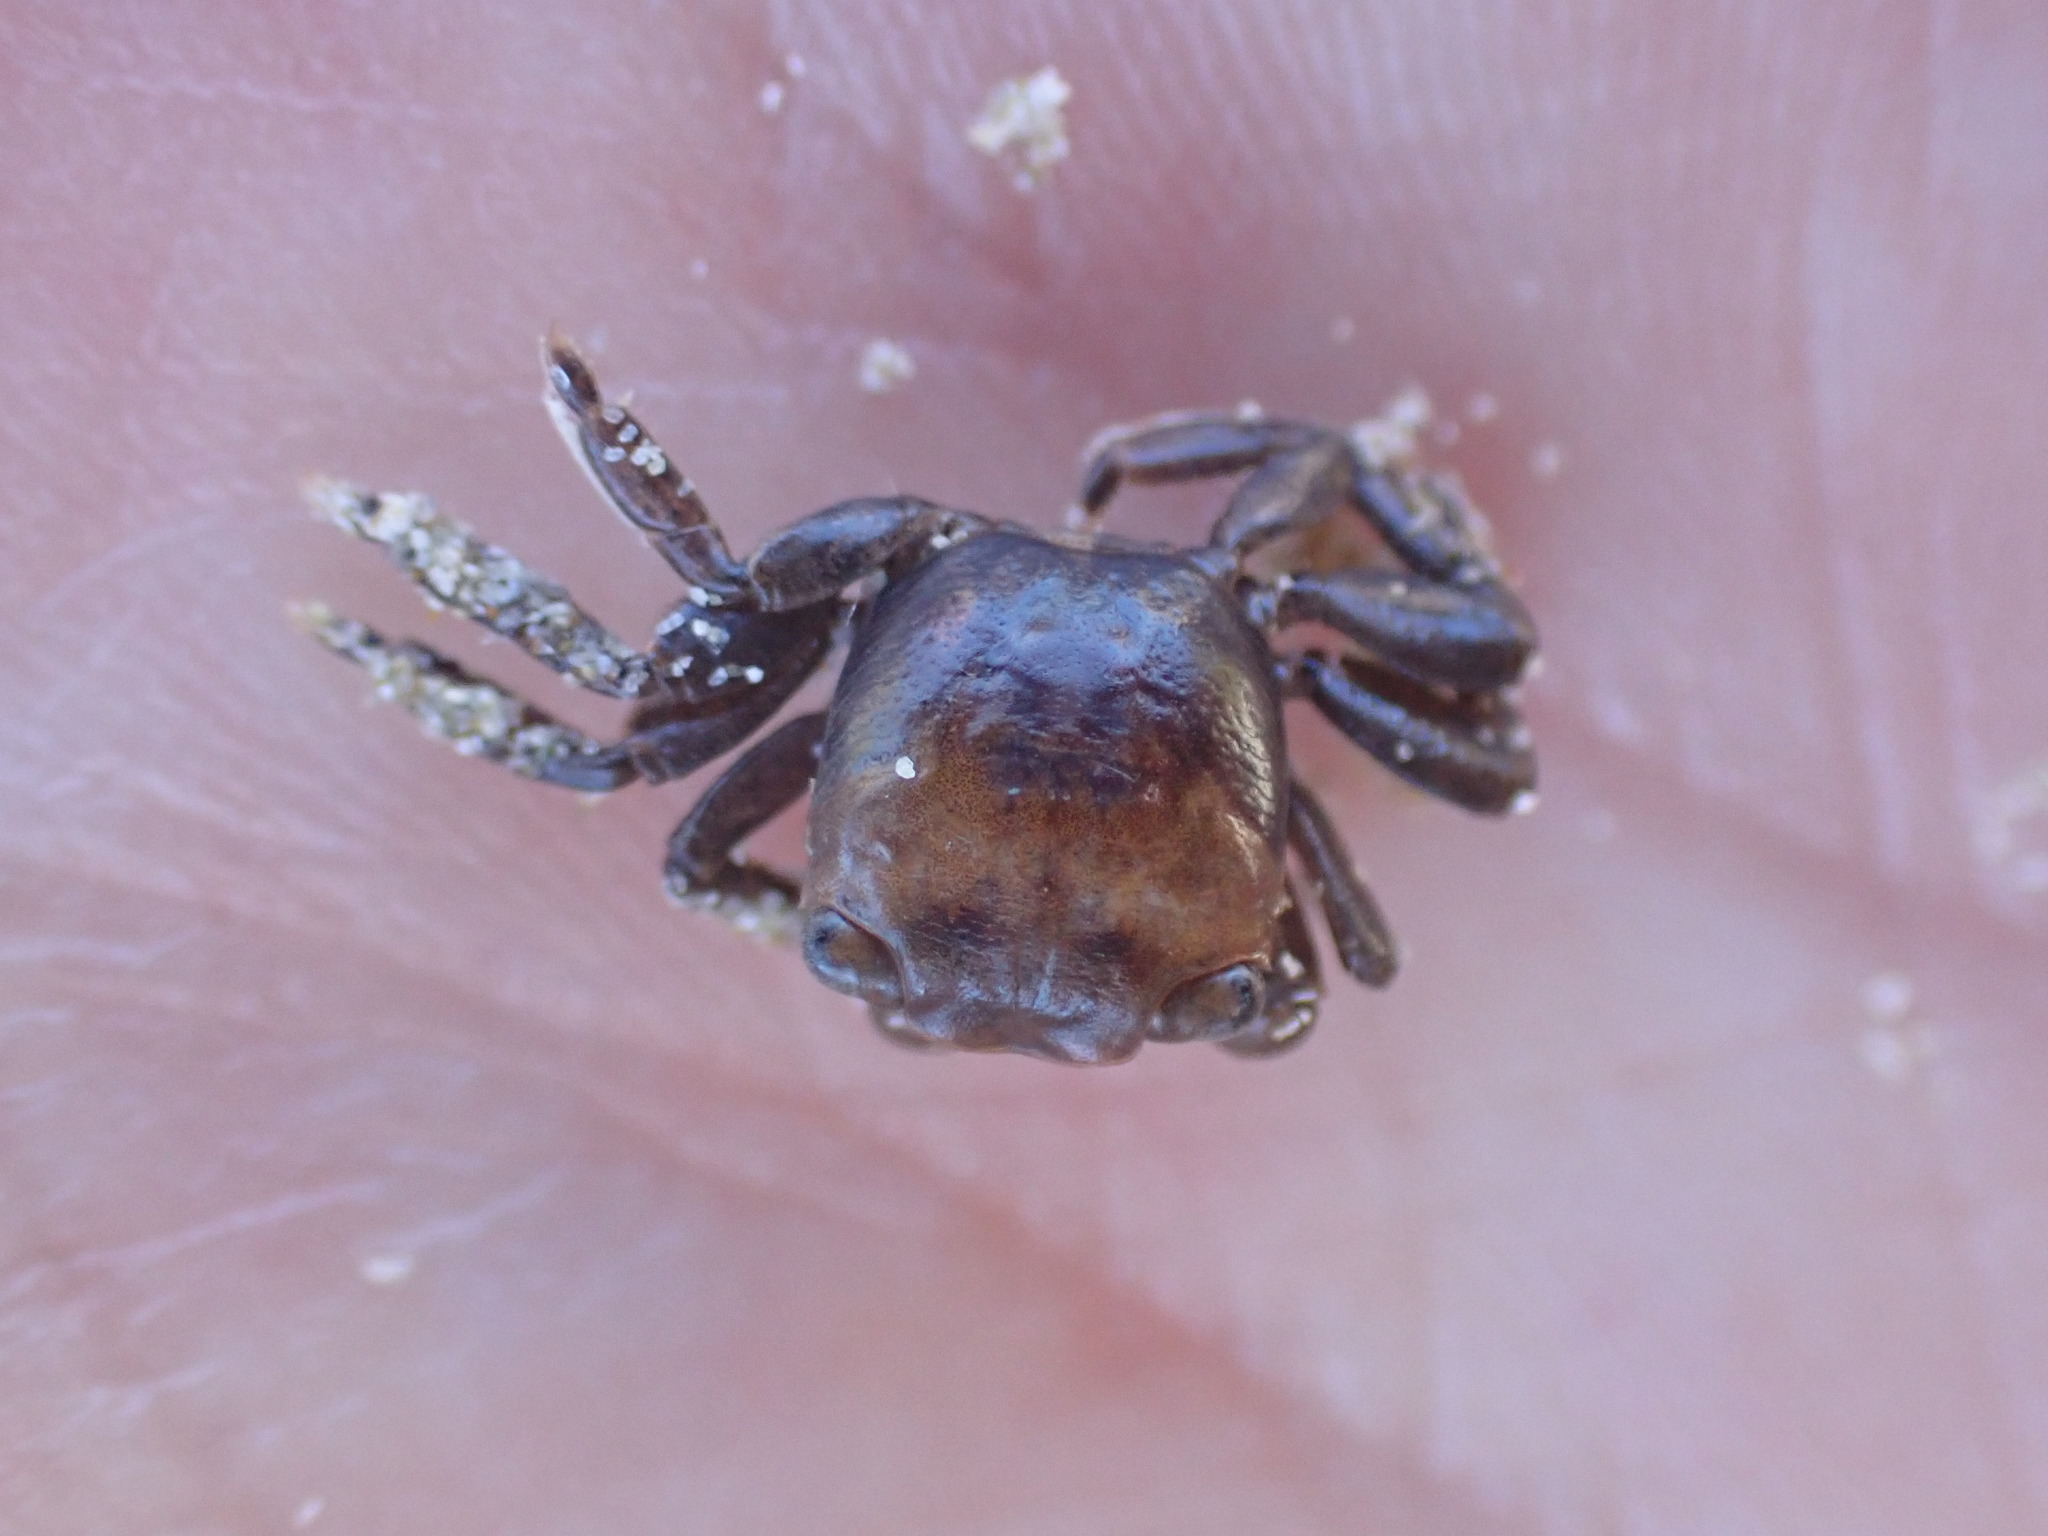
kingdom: Animalia
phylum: Arthropoda
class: Malacostraca
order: Decapoda
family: Grapsidae
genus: Planes
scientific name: Planes minutus
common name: Gulf weed crab
